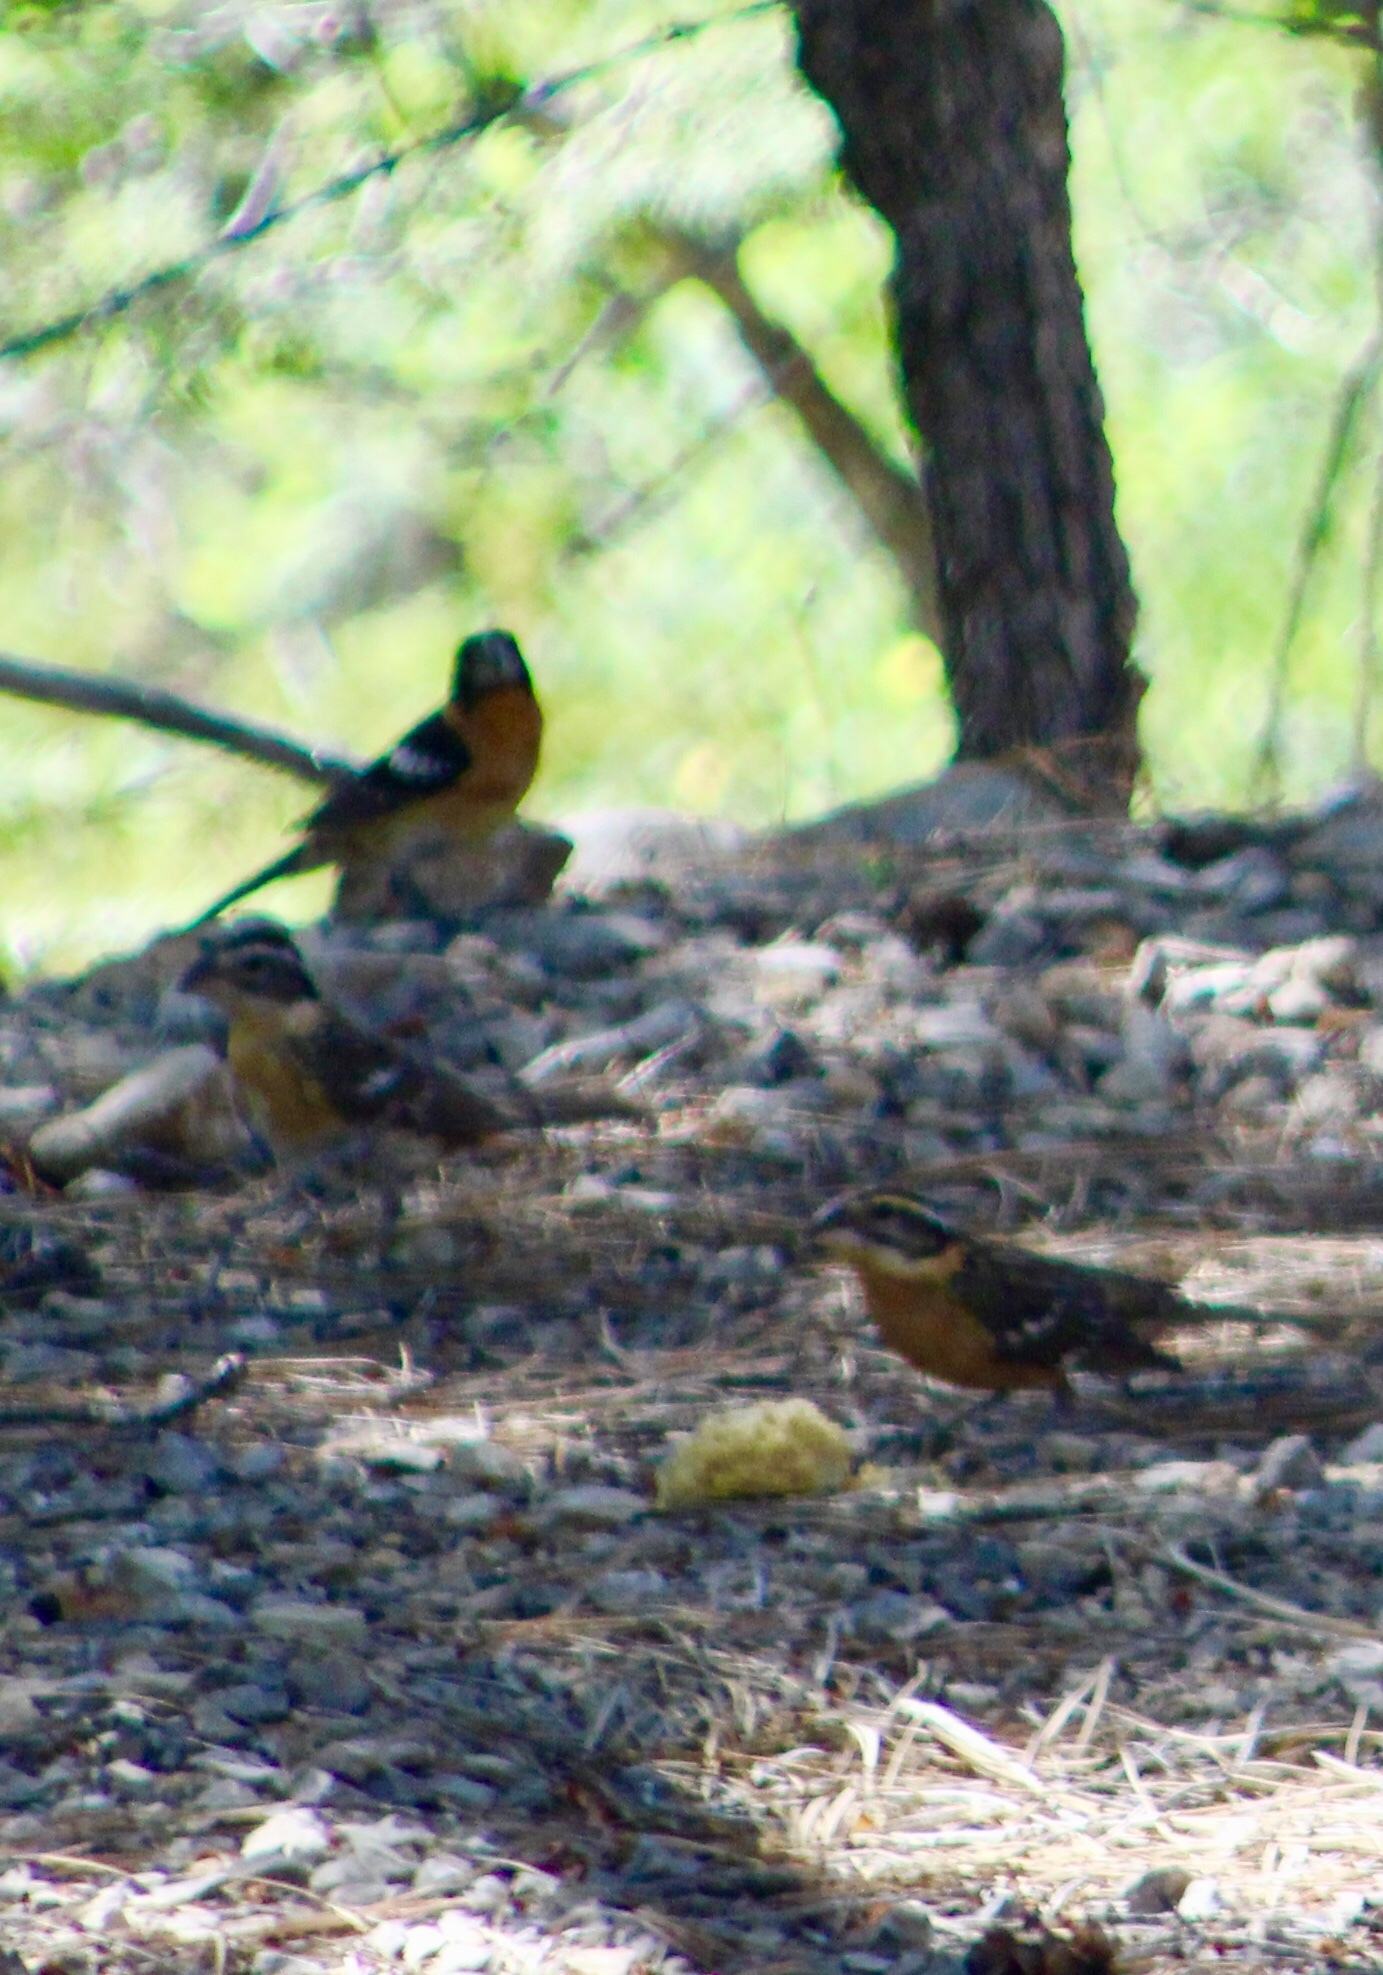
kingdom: Animalia
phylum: Chordata
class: Aves
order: Passeriformes
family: Cardinalidae
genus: Pheucticus
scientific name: Pheucticus melanocephalus
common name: Black-headed grosbeak
